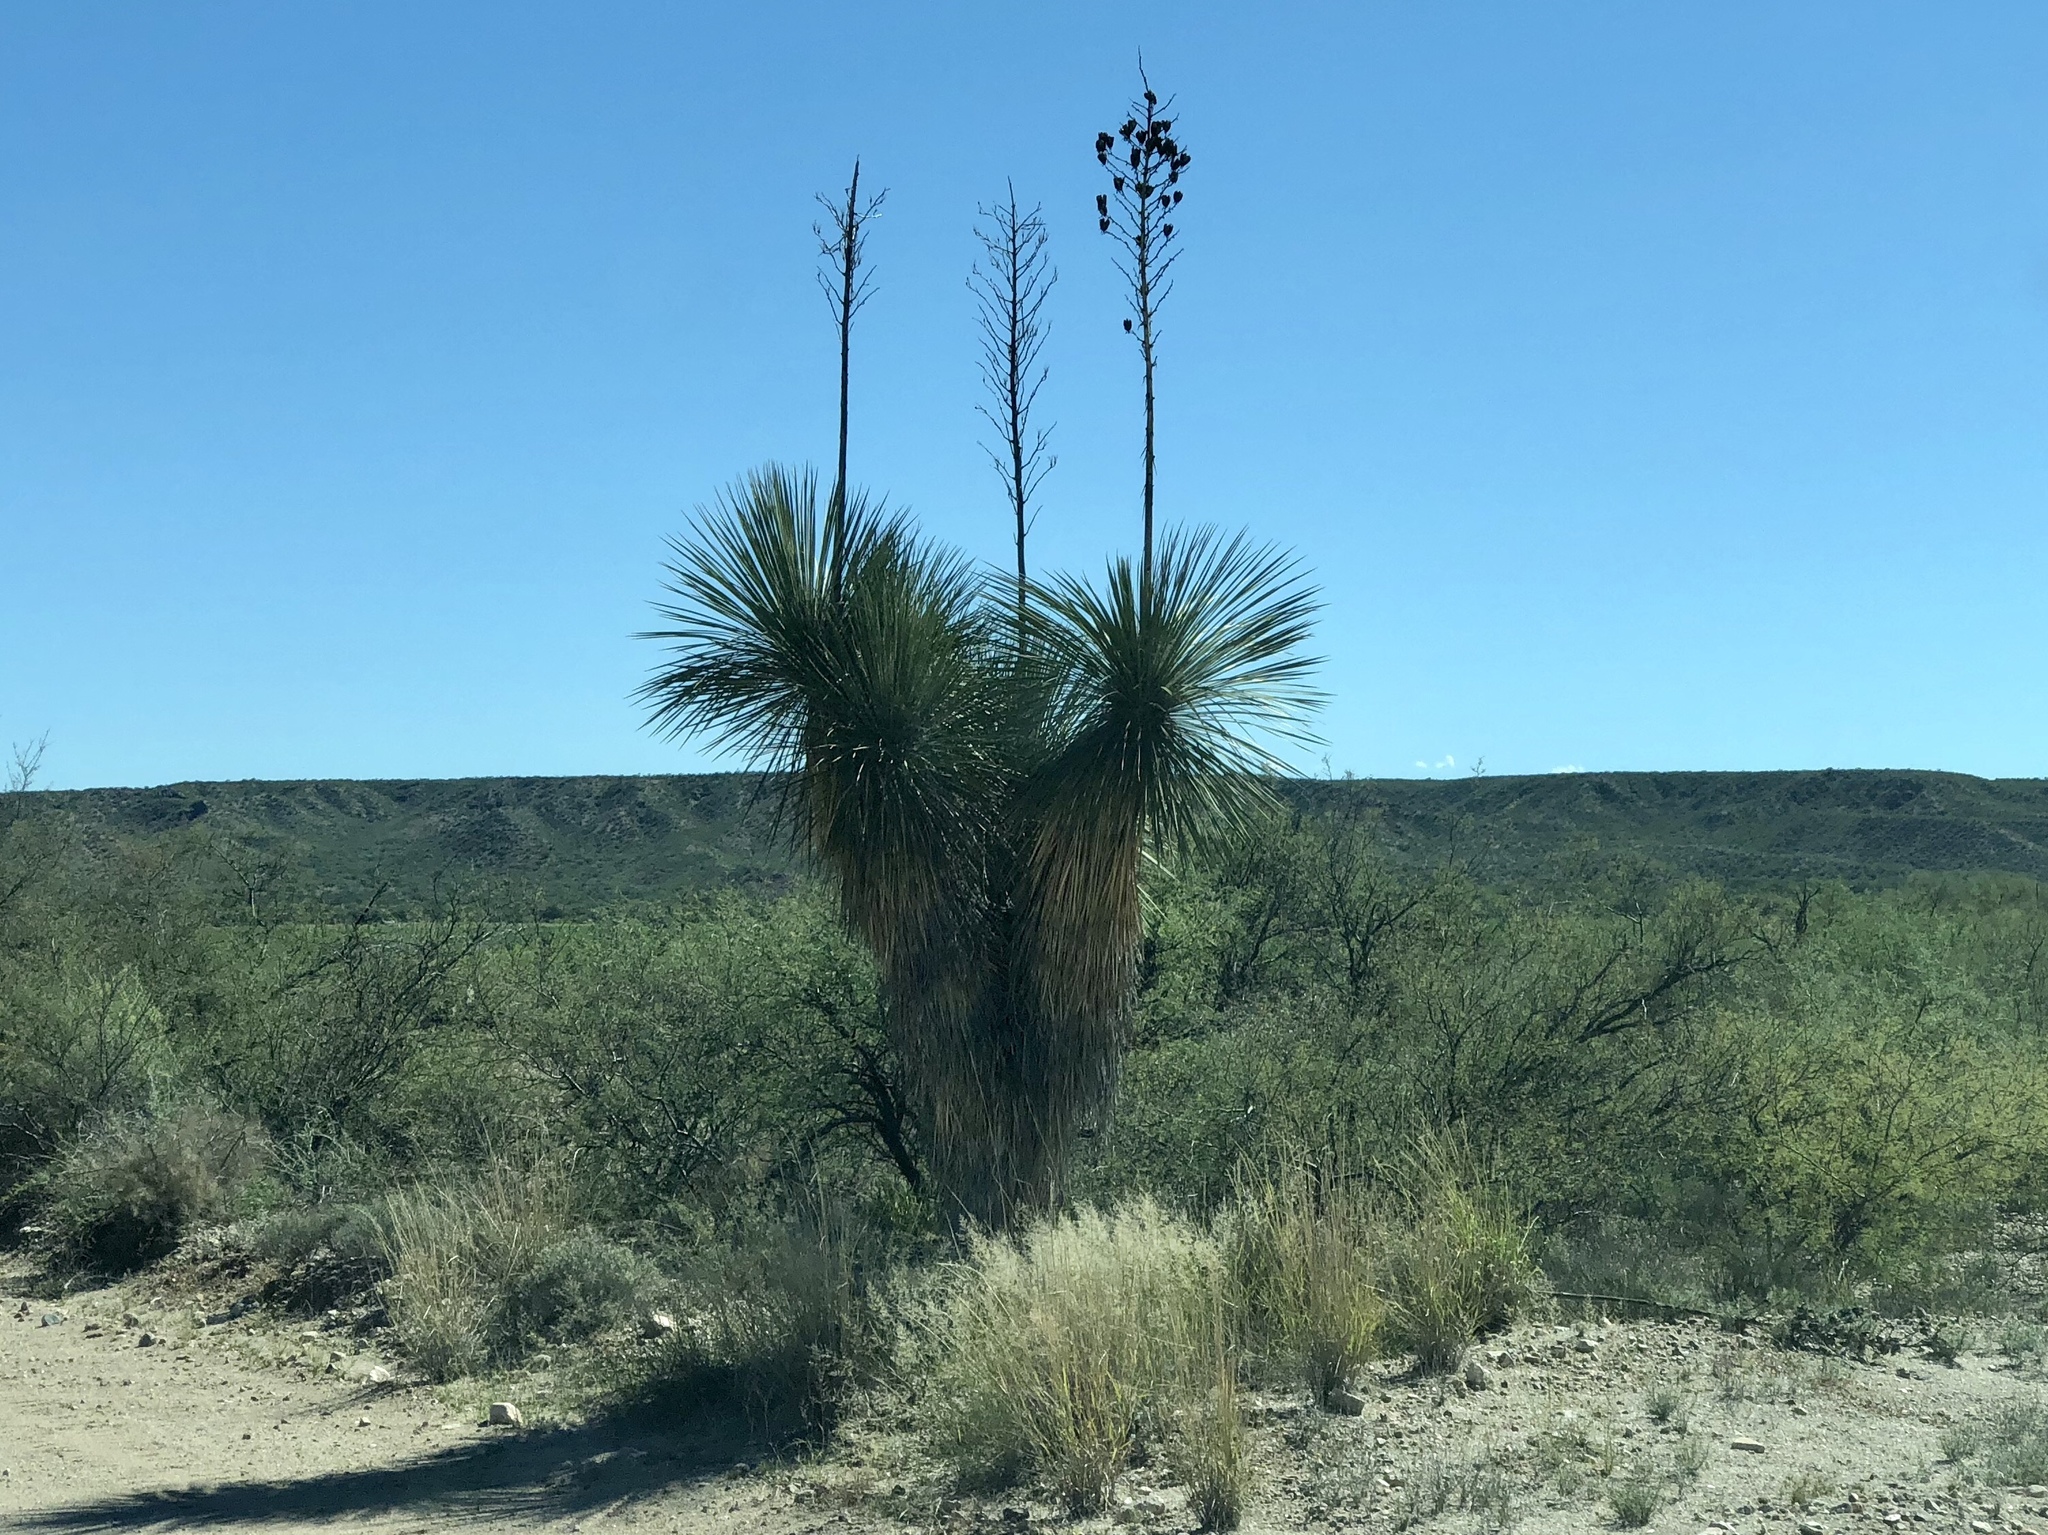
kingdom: Plantae
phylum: Tracheophyta
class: Liliopsida
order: Asparagales
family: Asparagaceae
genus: Yucca
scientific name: Yucca elata
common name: Palmella
